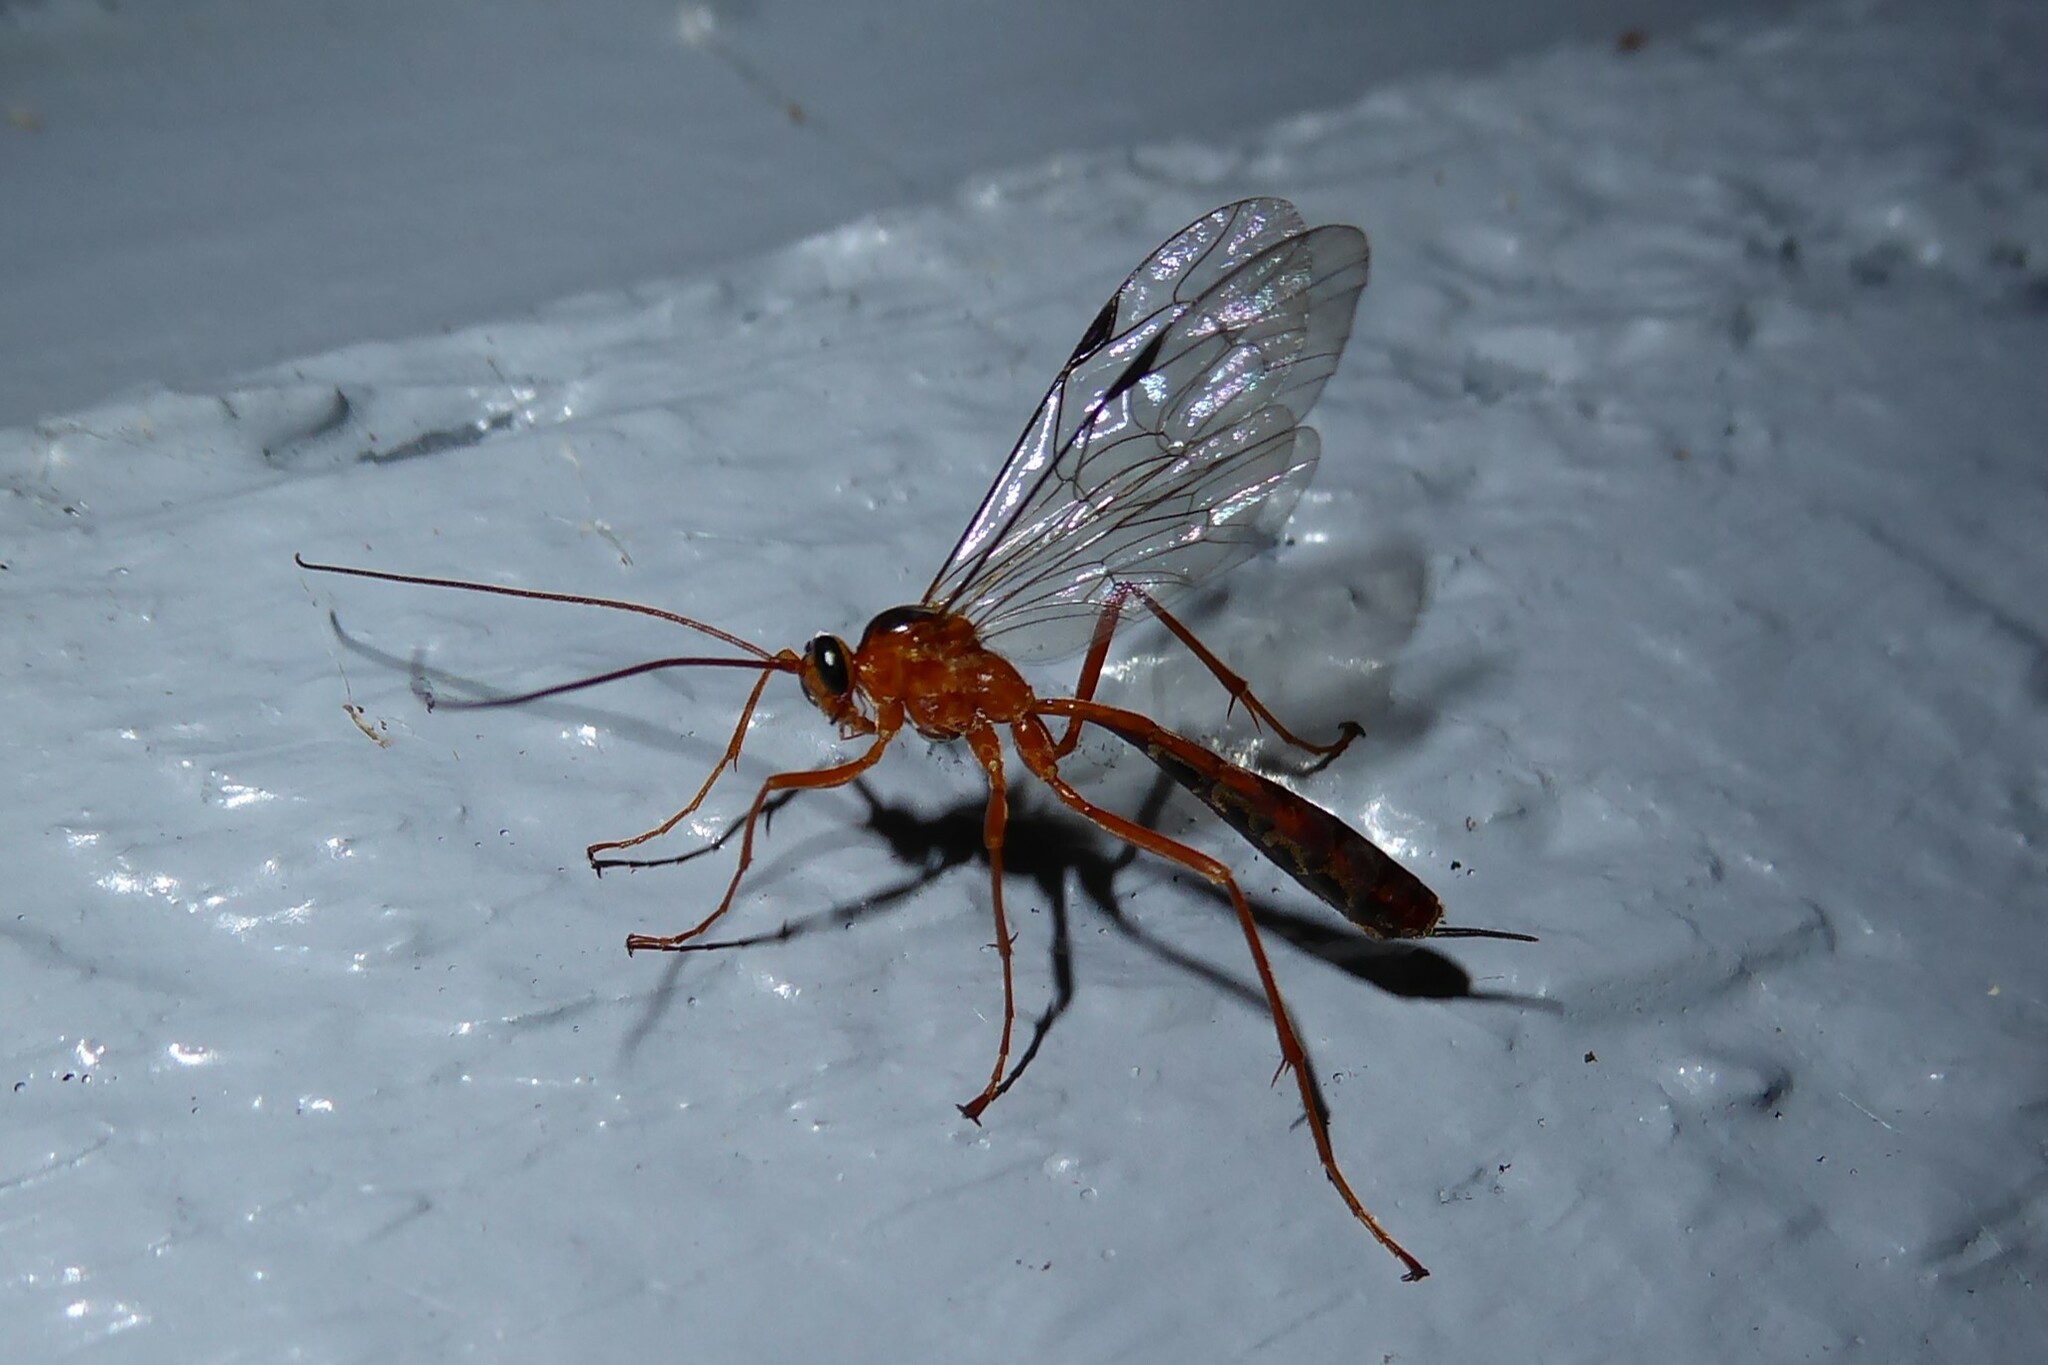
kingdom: Animalia
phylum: Arthropoda
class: Insecta
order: Hymenoptera
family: Ichneumonidae
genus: Netelia
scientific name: Netelia ephippiata
